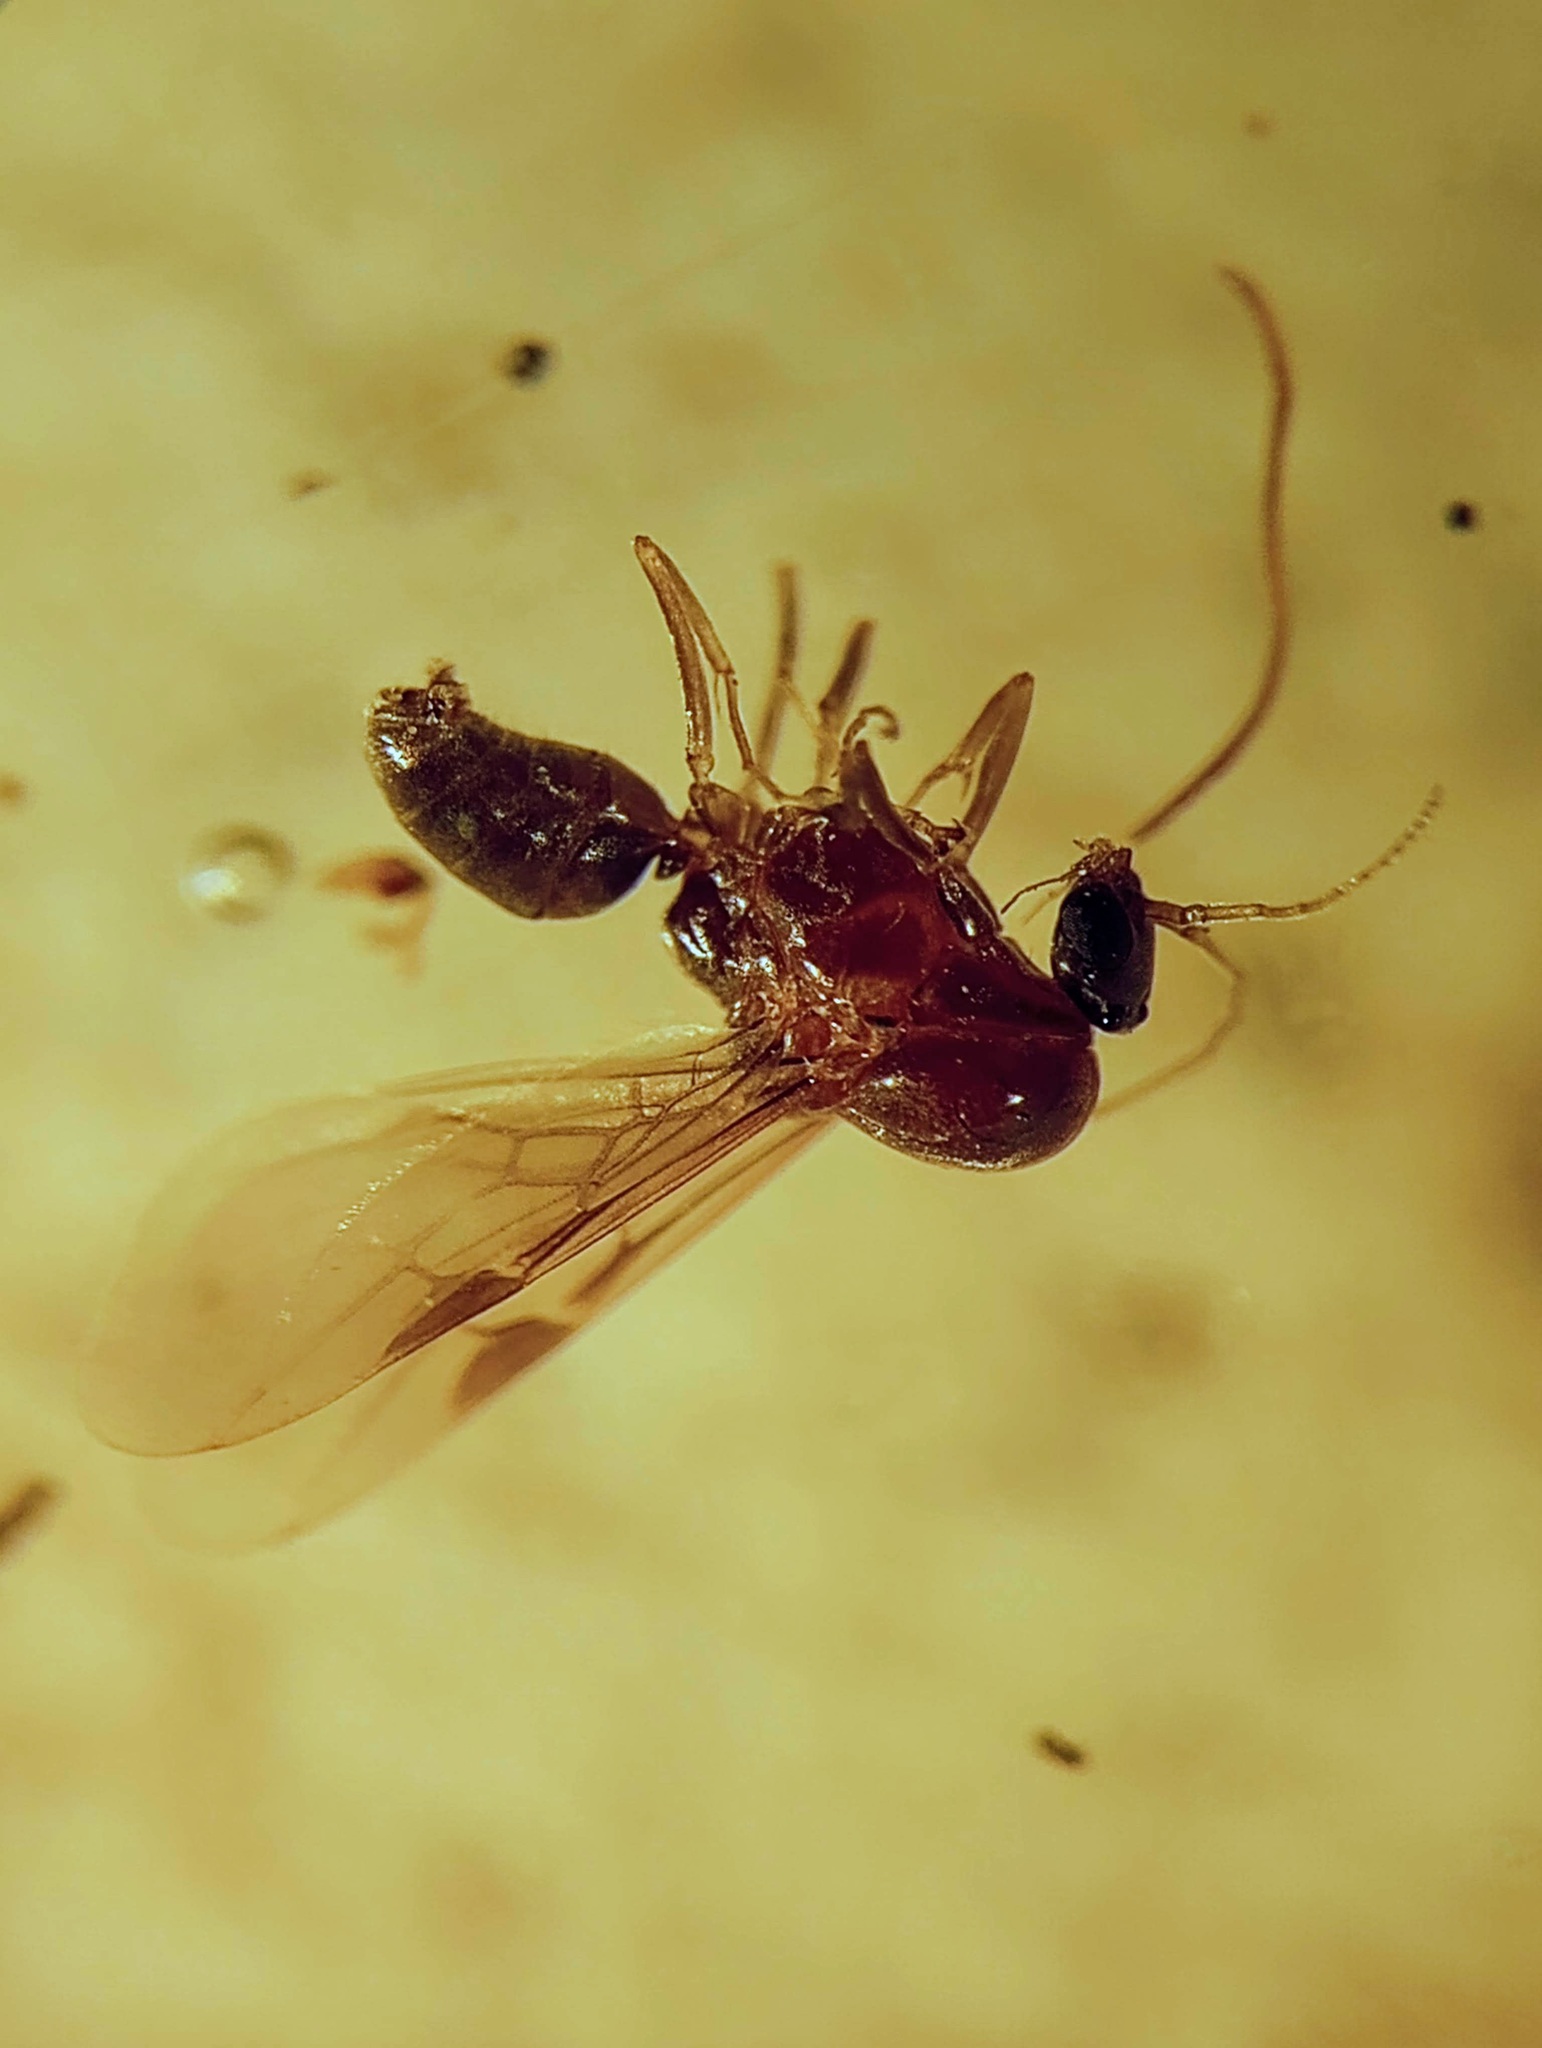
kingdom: Animalia
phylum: Arthropoda
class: Insecta
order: Hymenoptera
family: Formicidae
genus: Linepithema
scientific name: Linepithema humile
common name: Argentine ant
